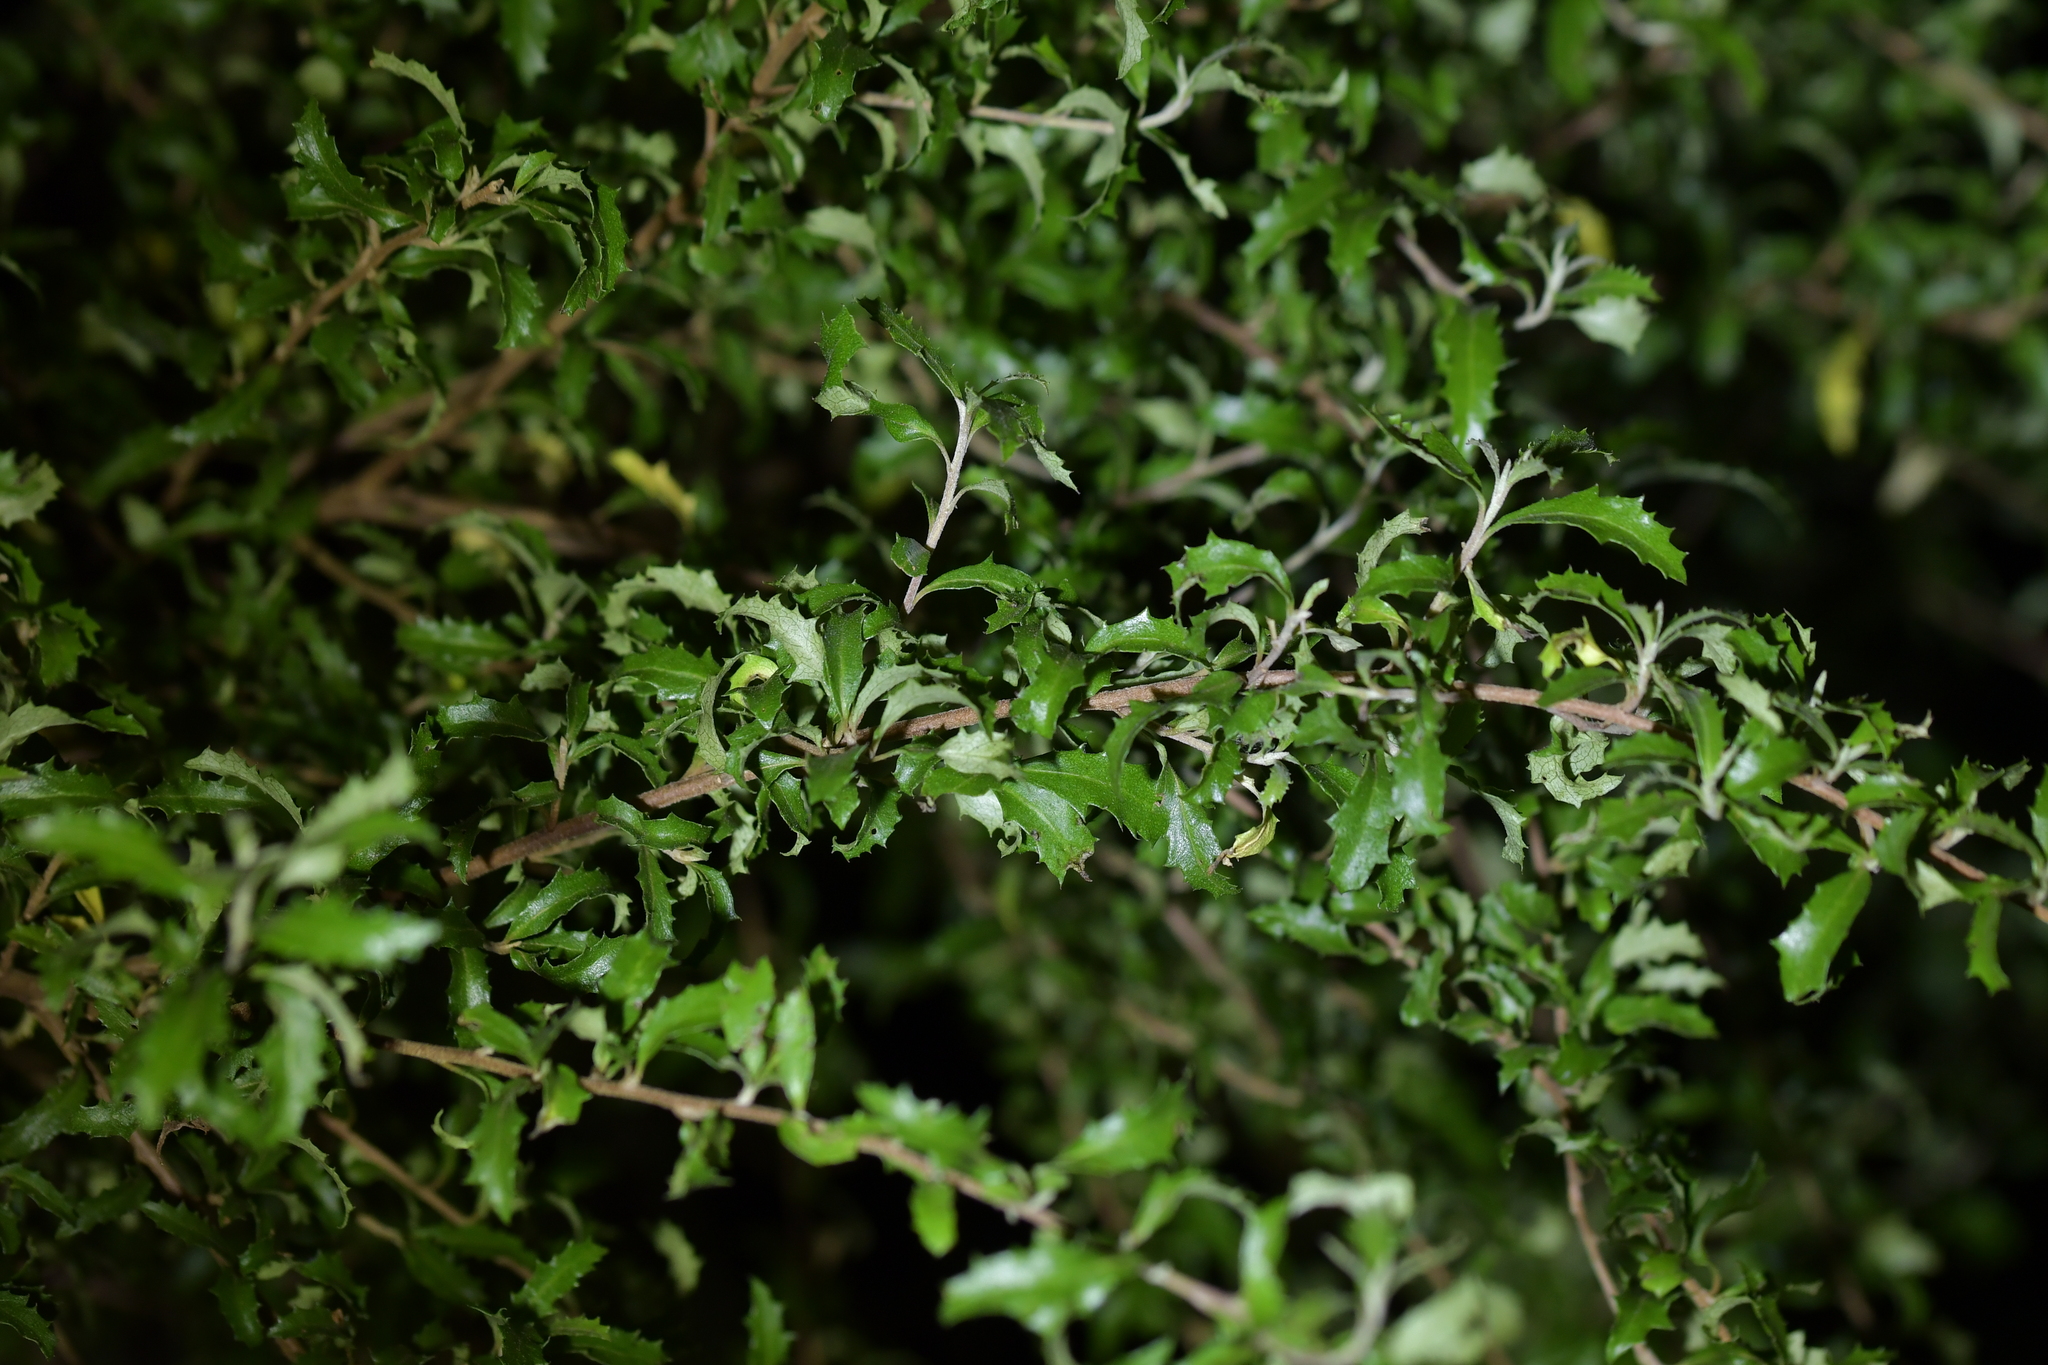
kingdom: Plantae
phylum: Tracheophyta
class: Magnoliopsida
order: Malvales
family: Malvaceae
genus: Hoheria
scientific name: Hoheria angustifolia
